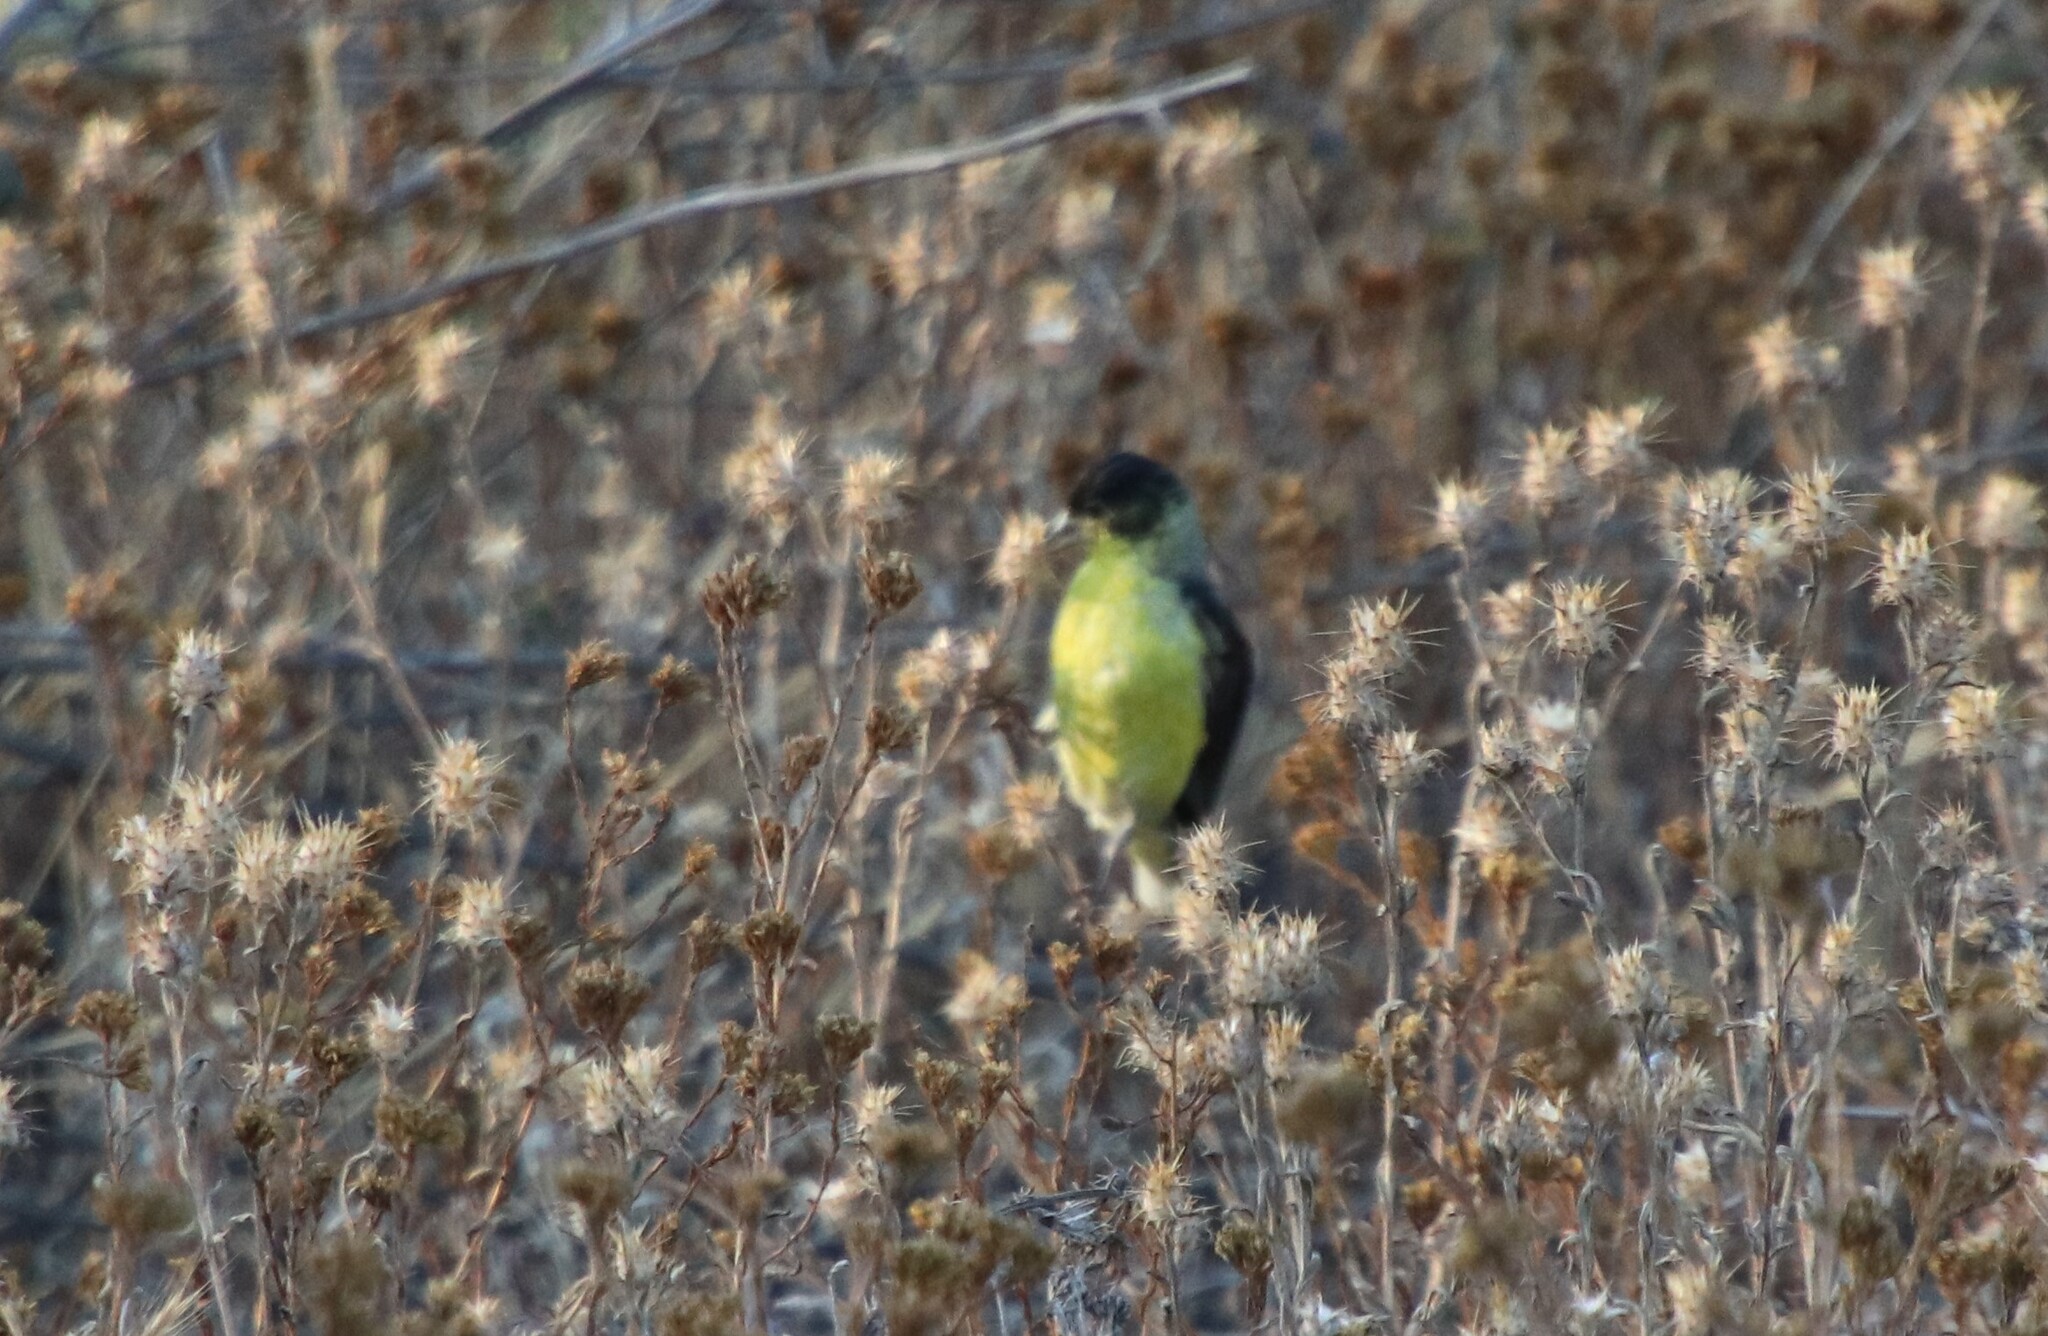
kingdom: Animalia
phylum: Chordata
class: Aves
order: Passeriformes
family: Fringillidae
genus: Spinus
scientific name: Spinus psaltria
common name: Lesser goldfinch
